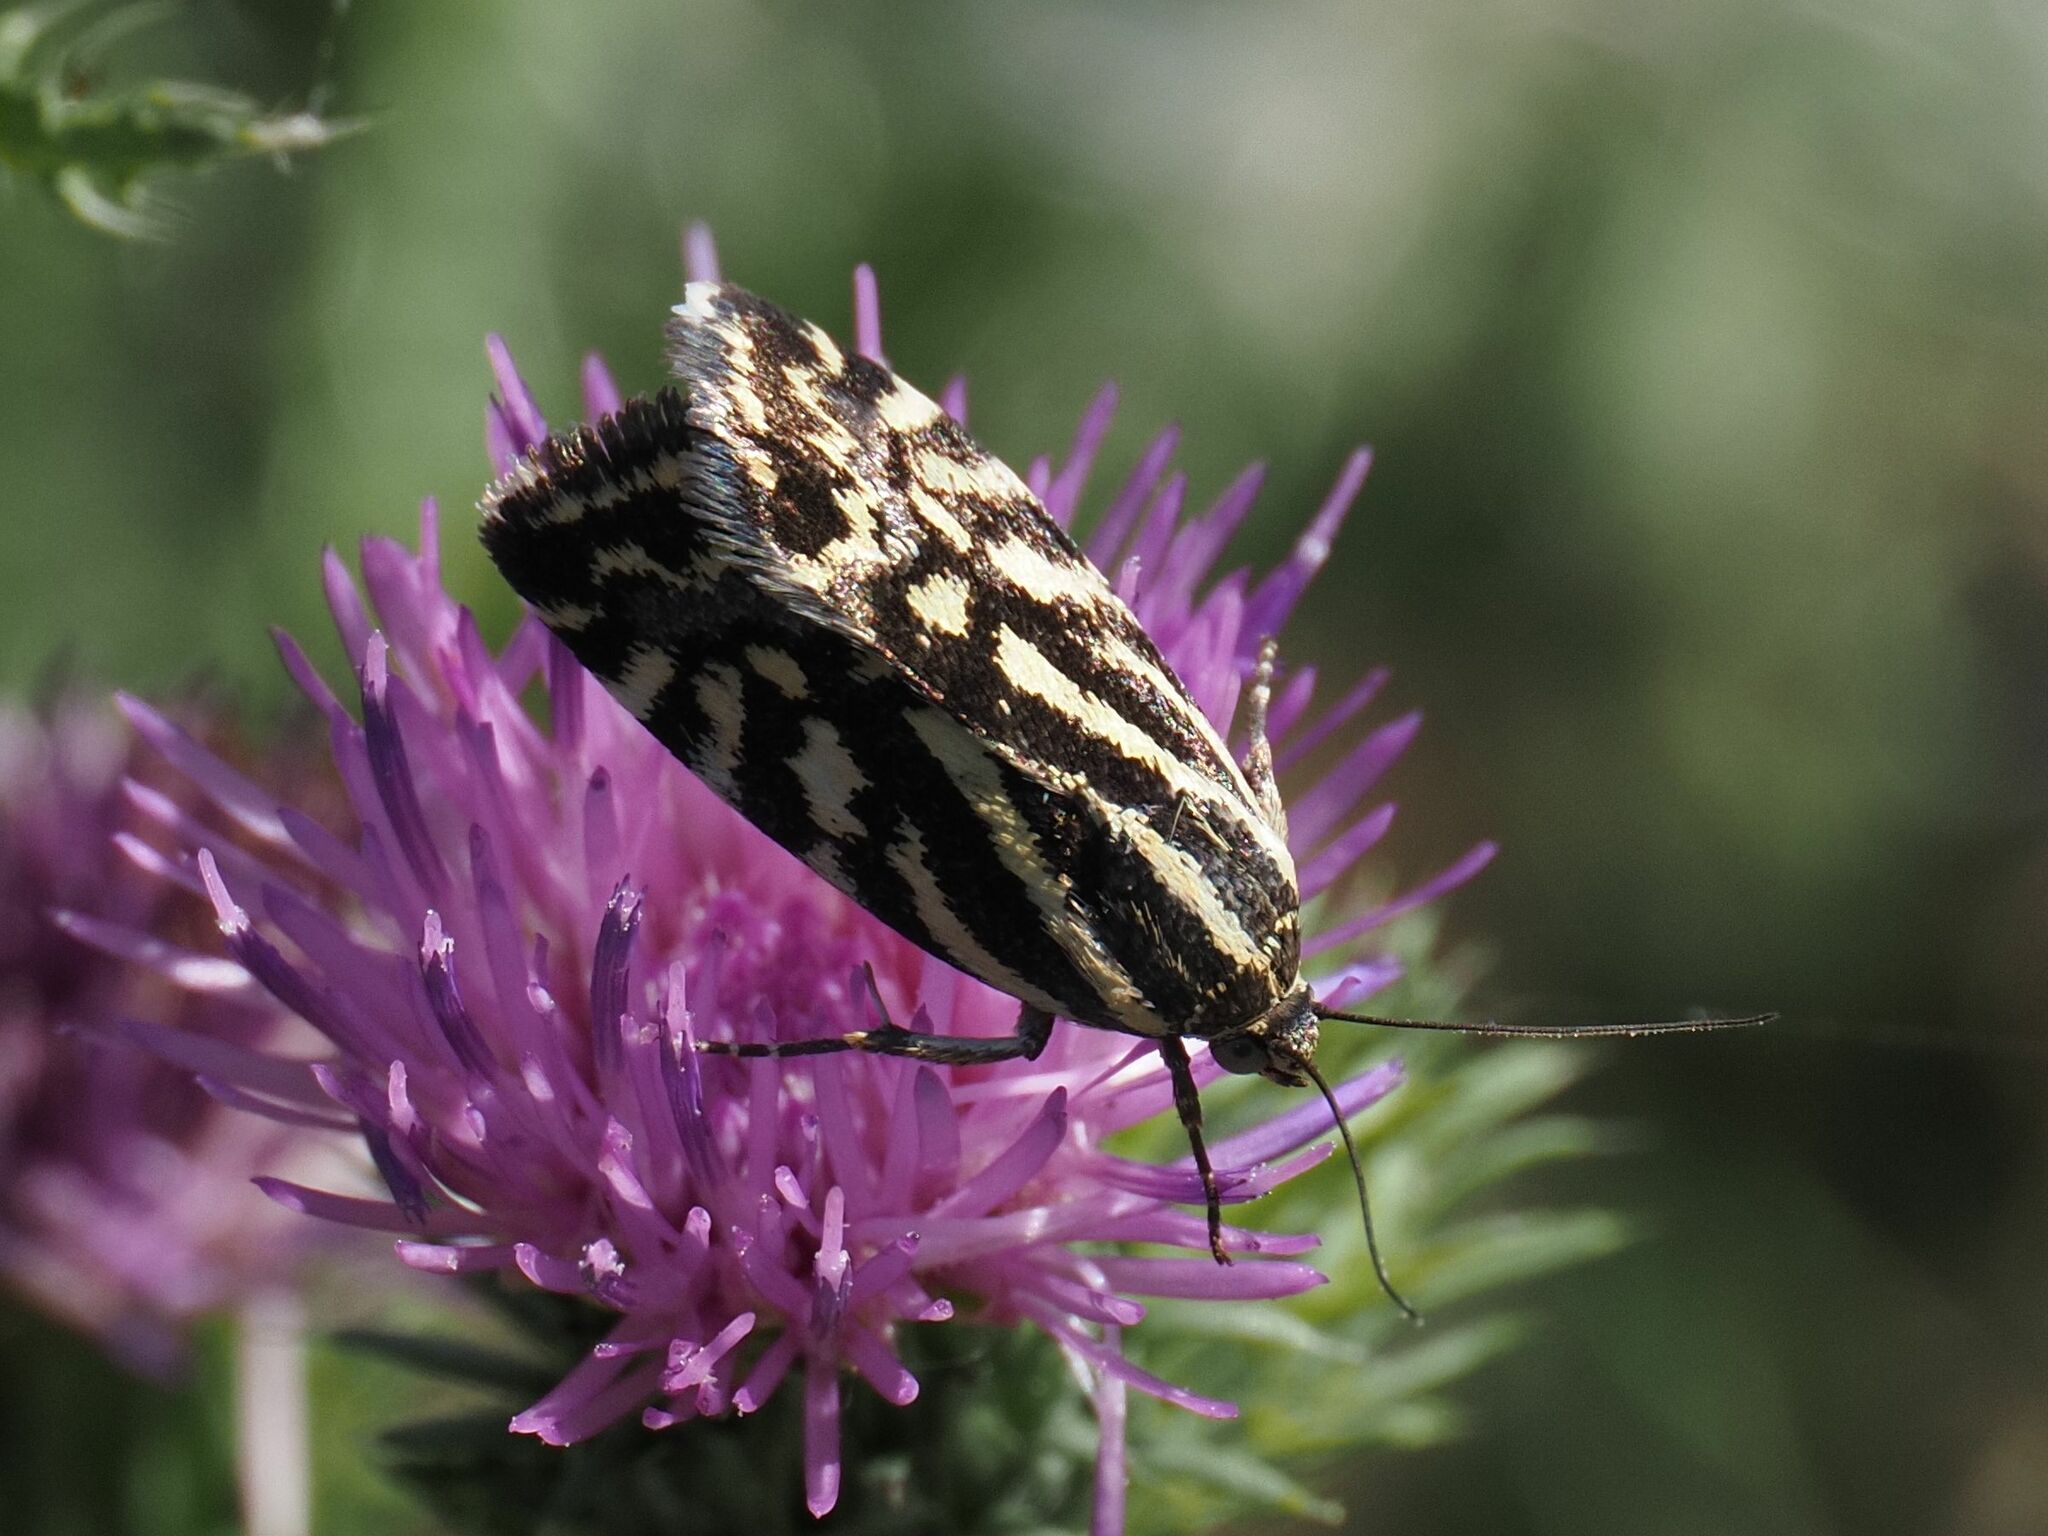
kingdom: Animalia
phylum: Arthropoda
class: Insecta
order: Lepidoptera
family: Noctuidae
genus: Acontia
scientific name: Acontia trabealis
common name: Spotted sulphur
